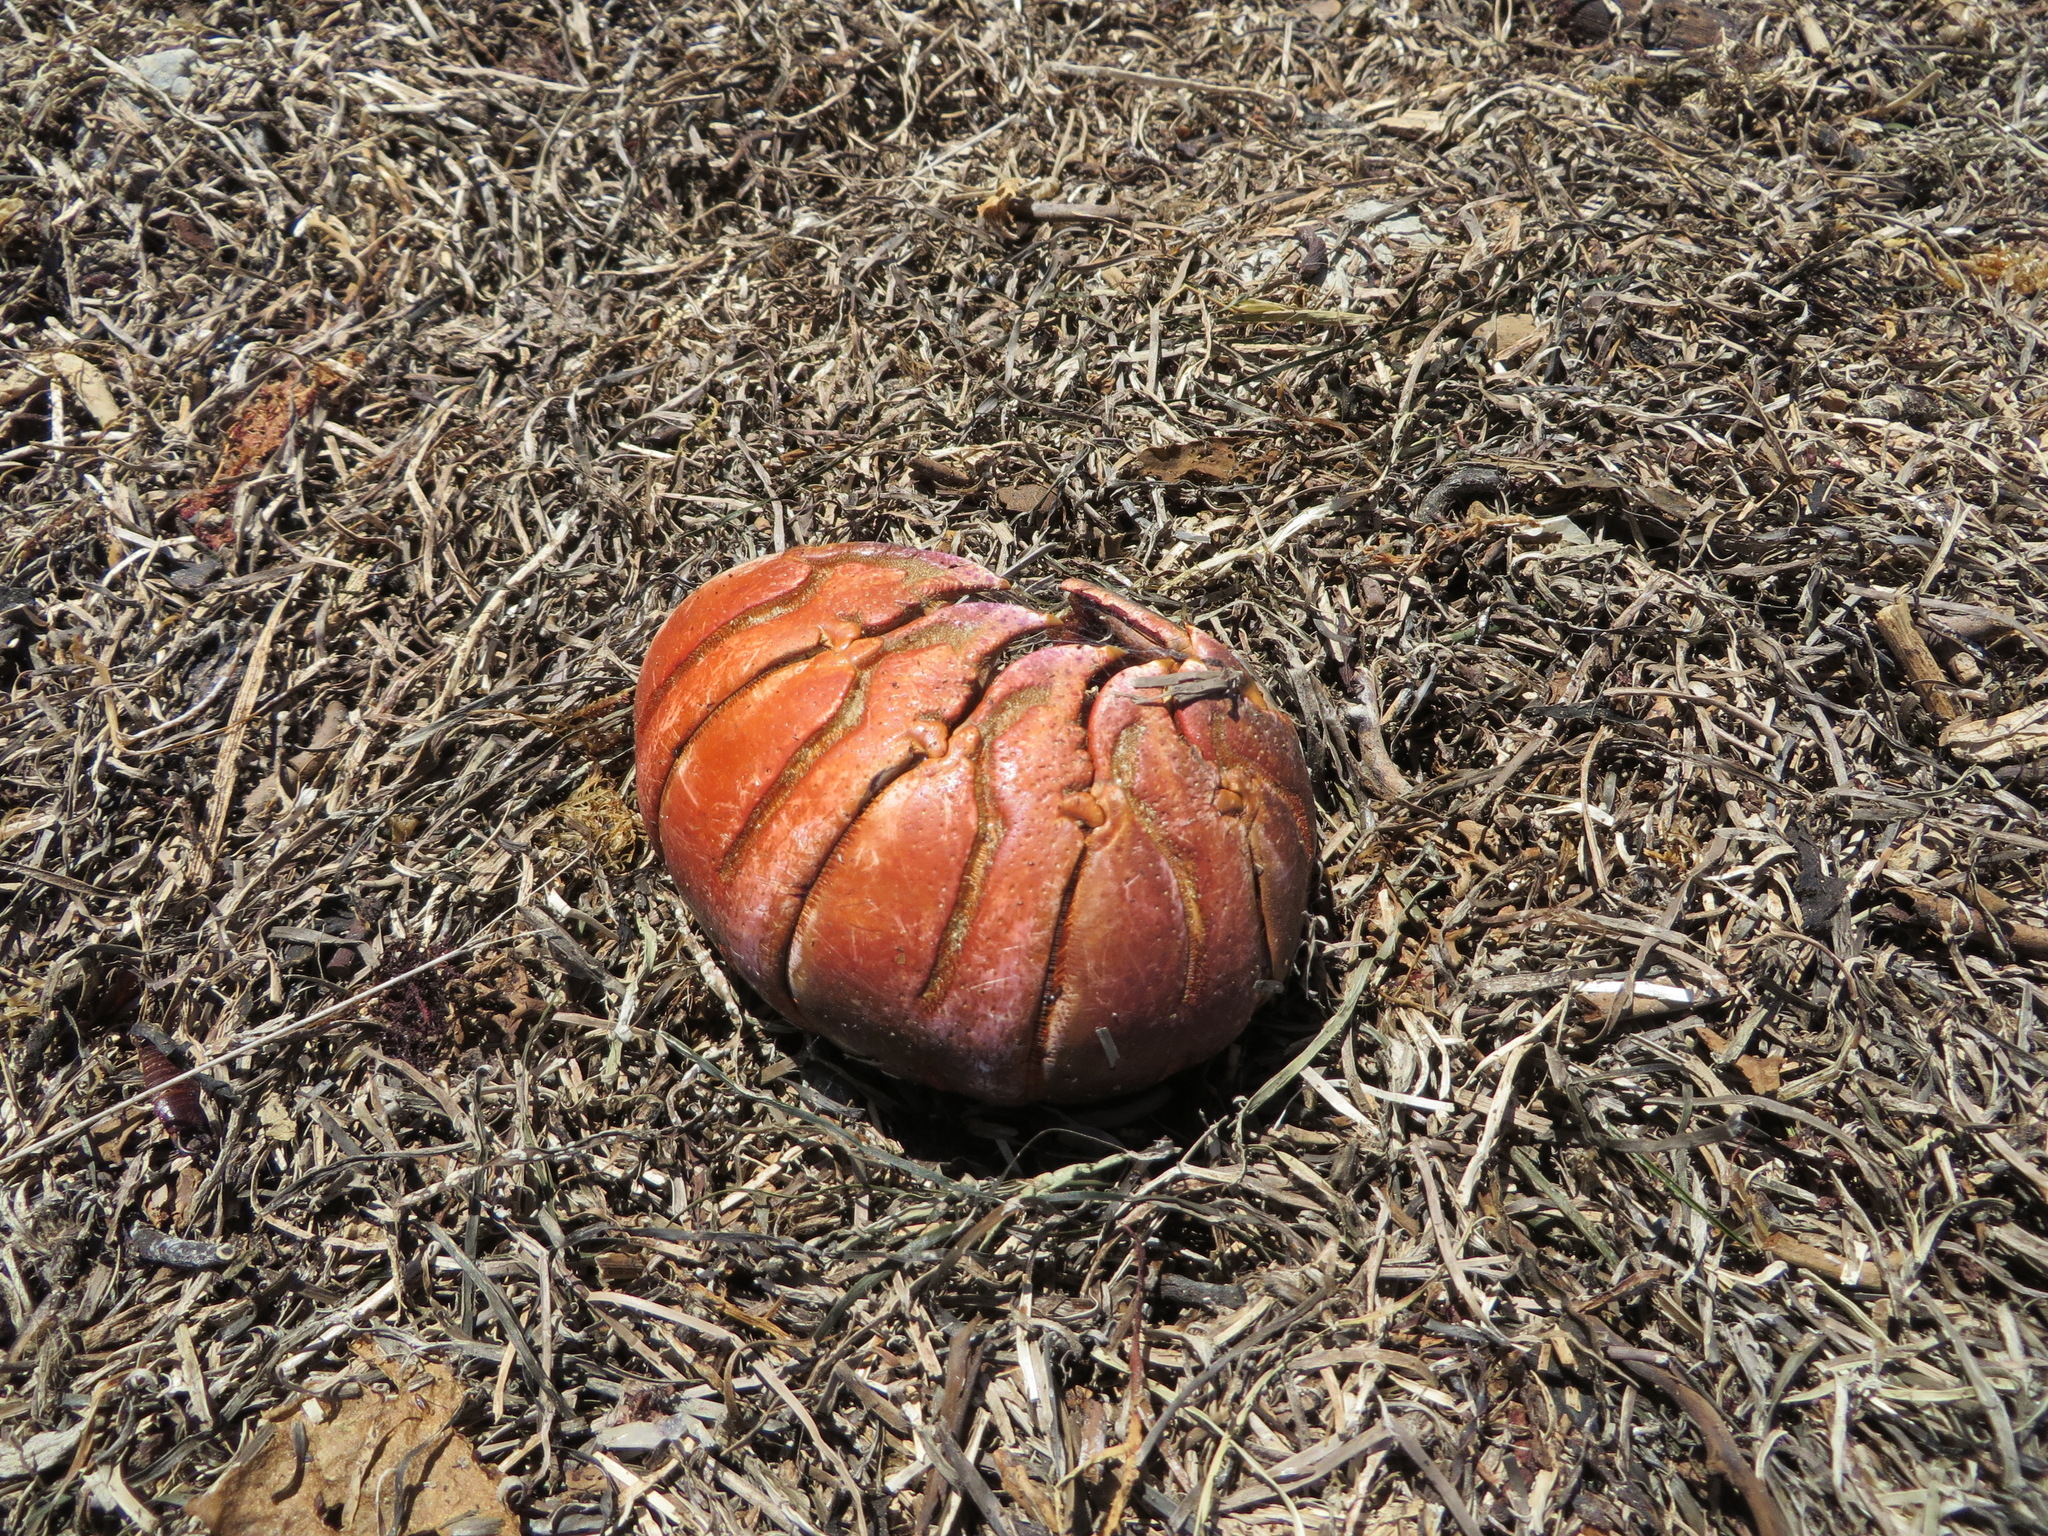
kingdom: Animalia
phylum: Arthropoda
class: Malacostraca
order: Decapoda
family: Palinuridae
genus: Panulirus
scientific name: Panulirus interruptus
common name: California spiny lobster
